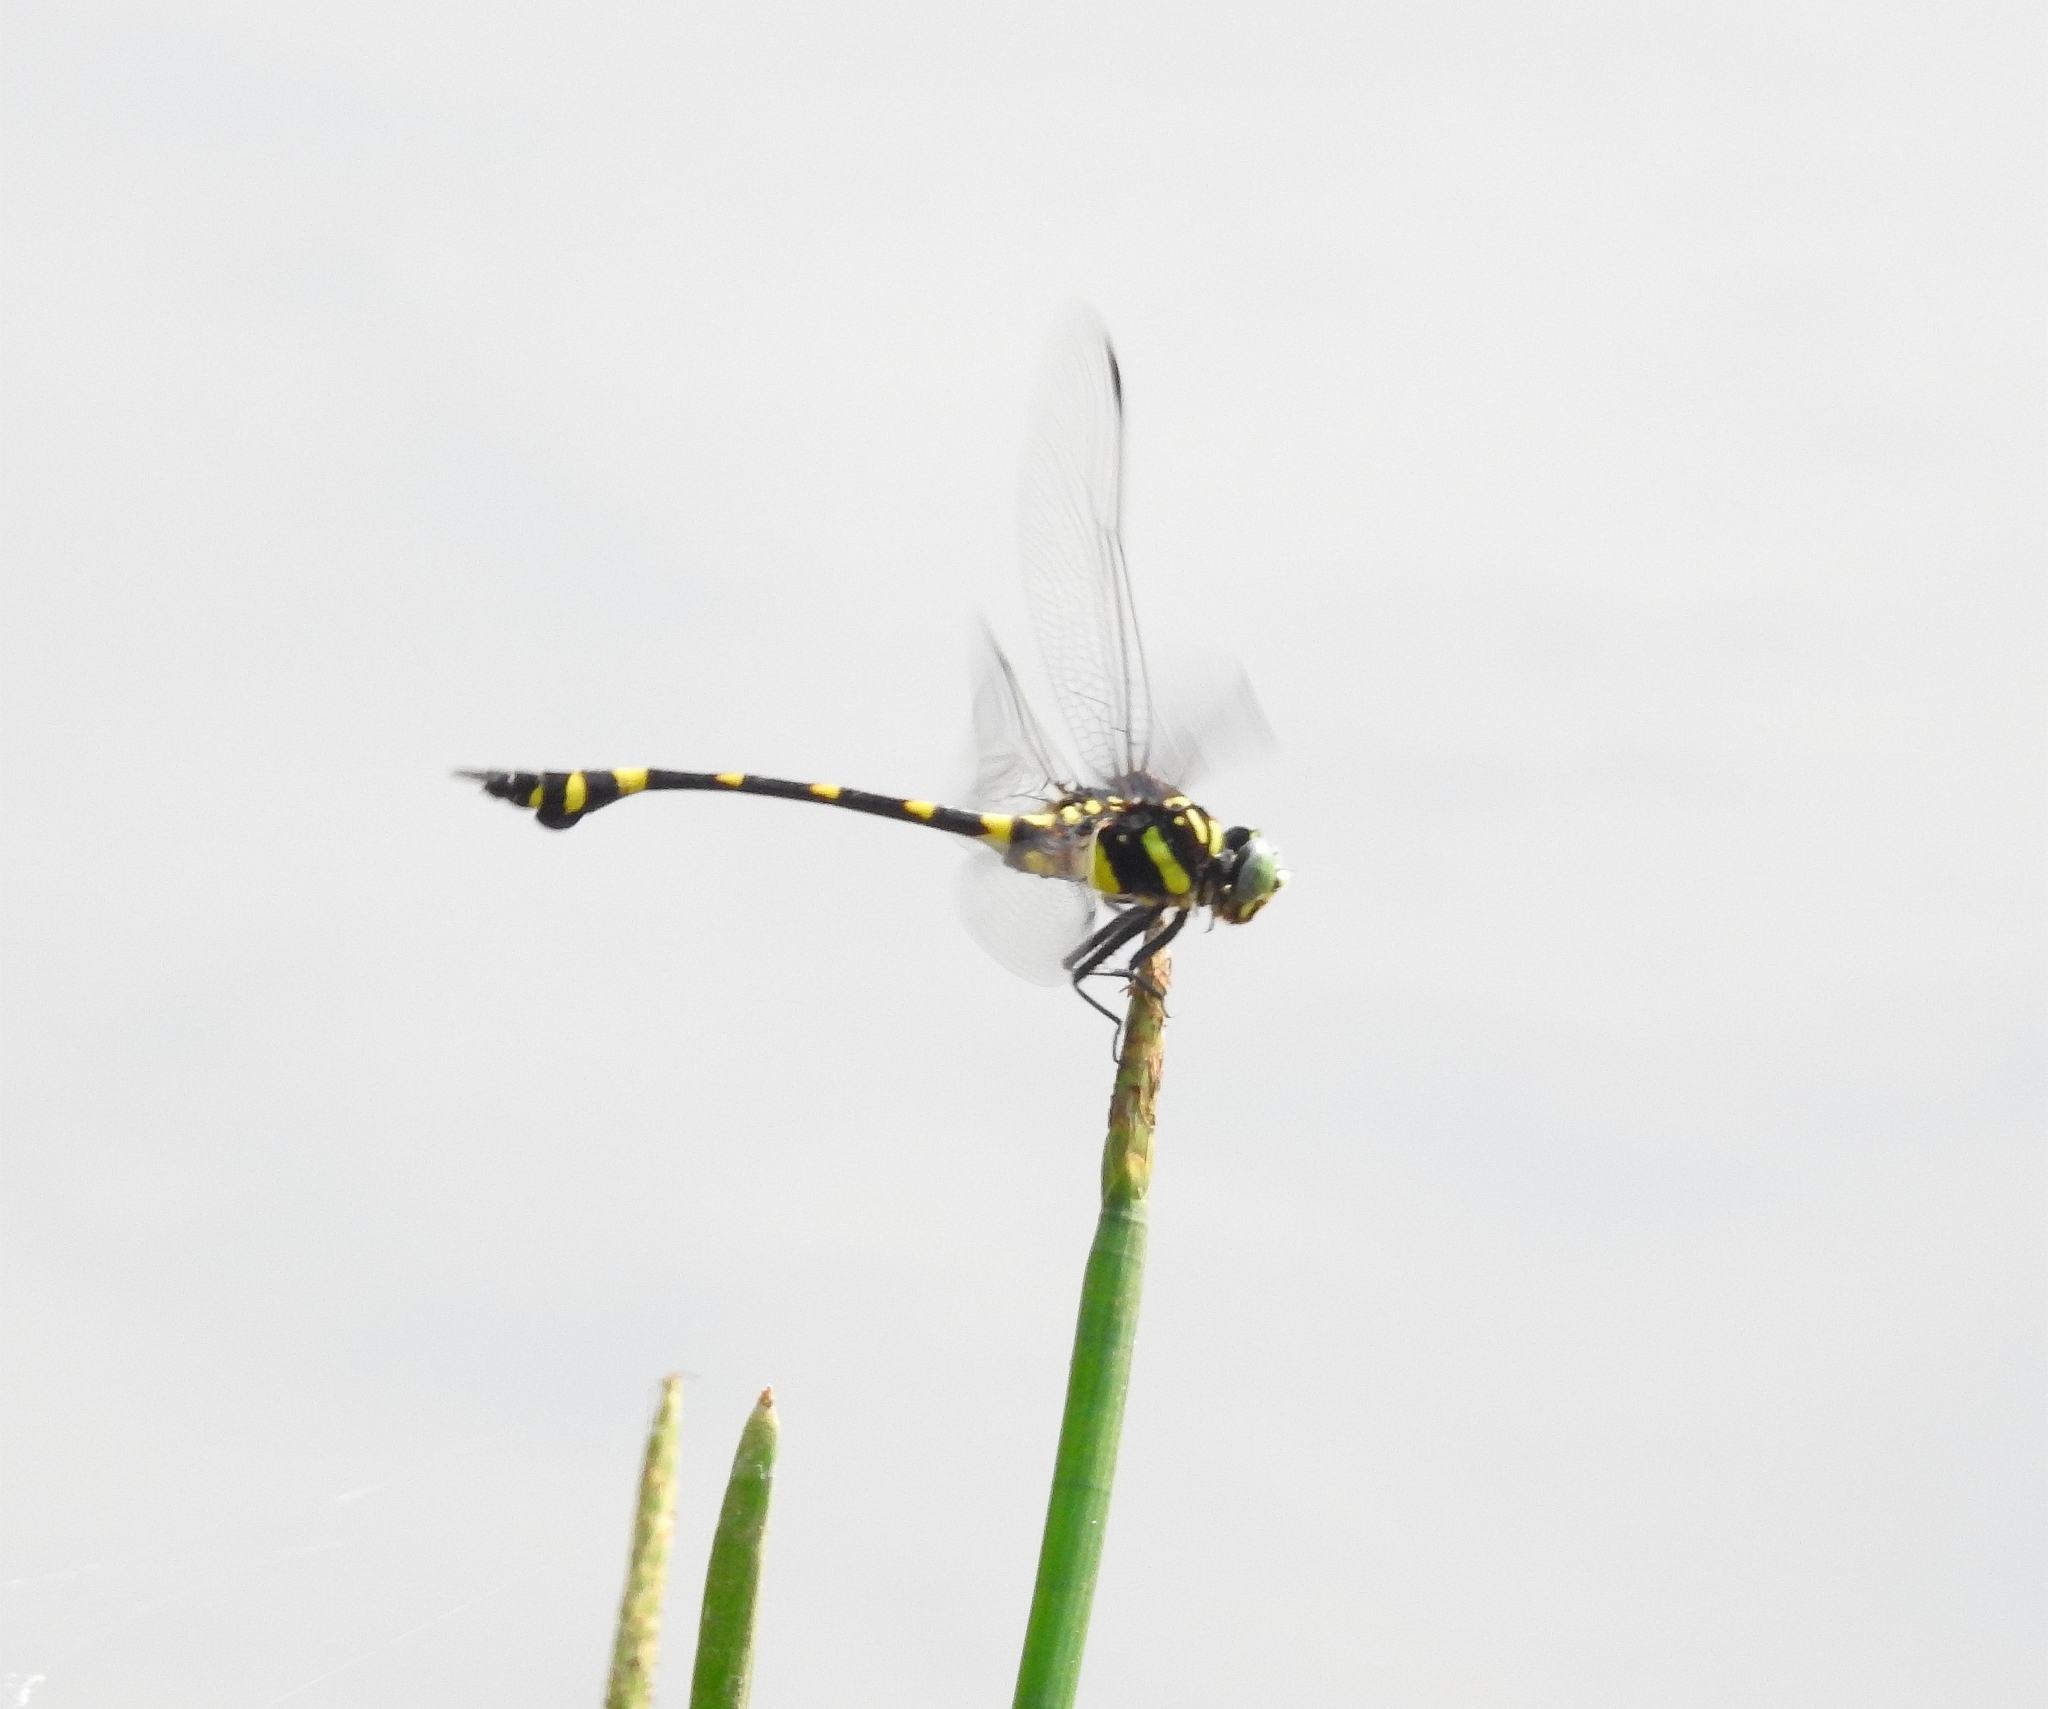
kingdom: Animalia
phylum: Arthropoda
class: Insecta
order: Odonata
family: Gomphidae
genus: Ictinogomphus
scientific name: Ictinogomphus rapax
